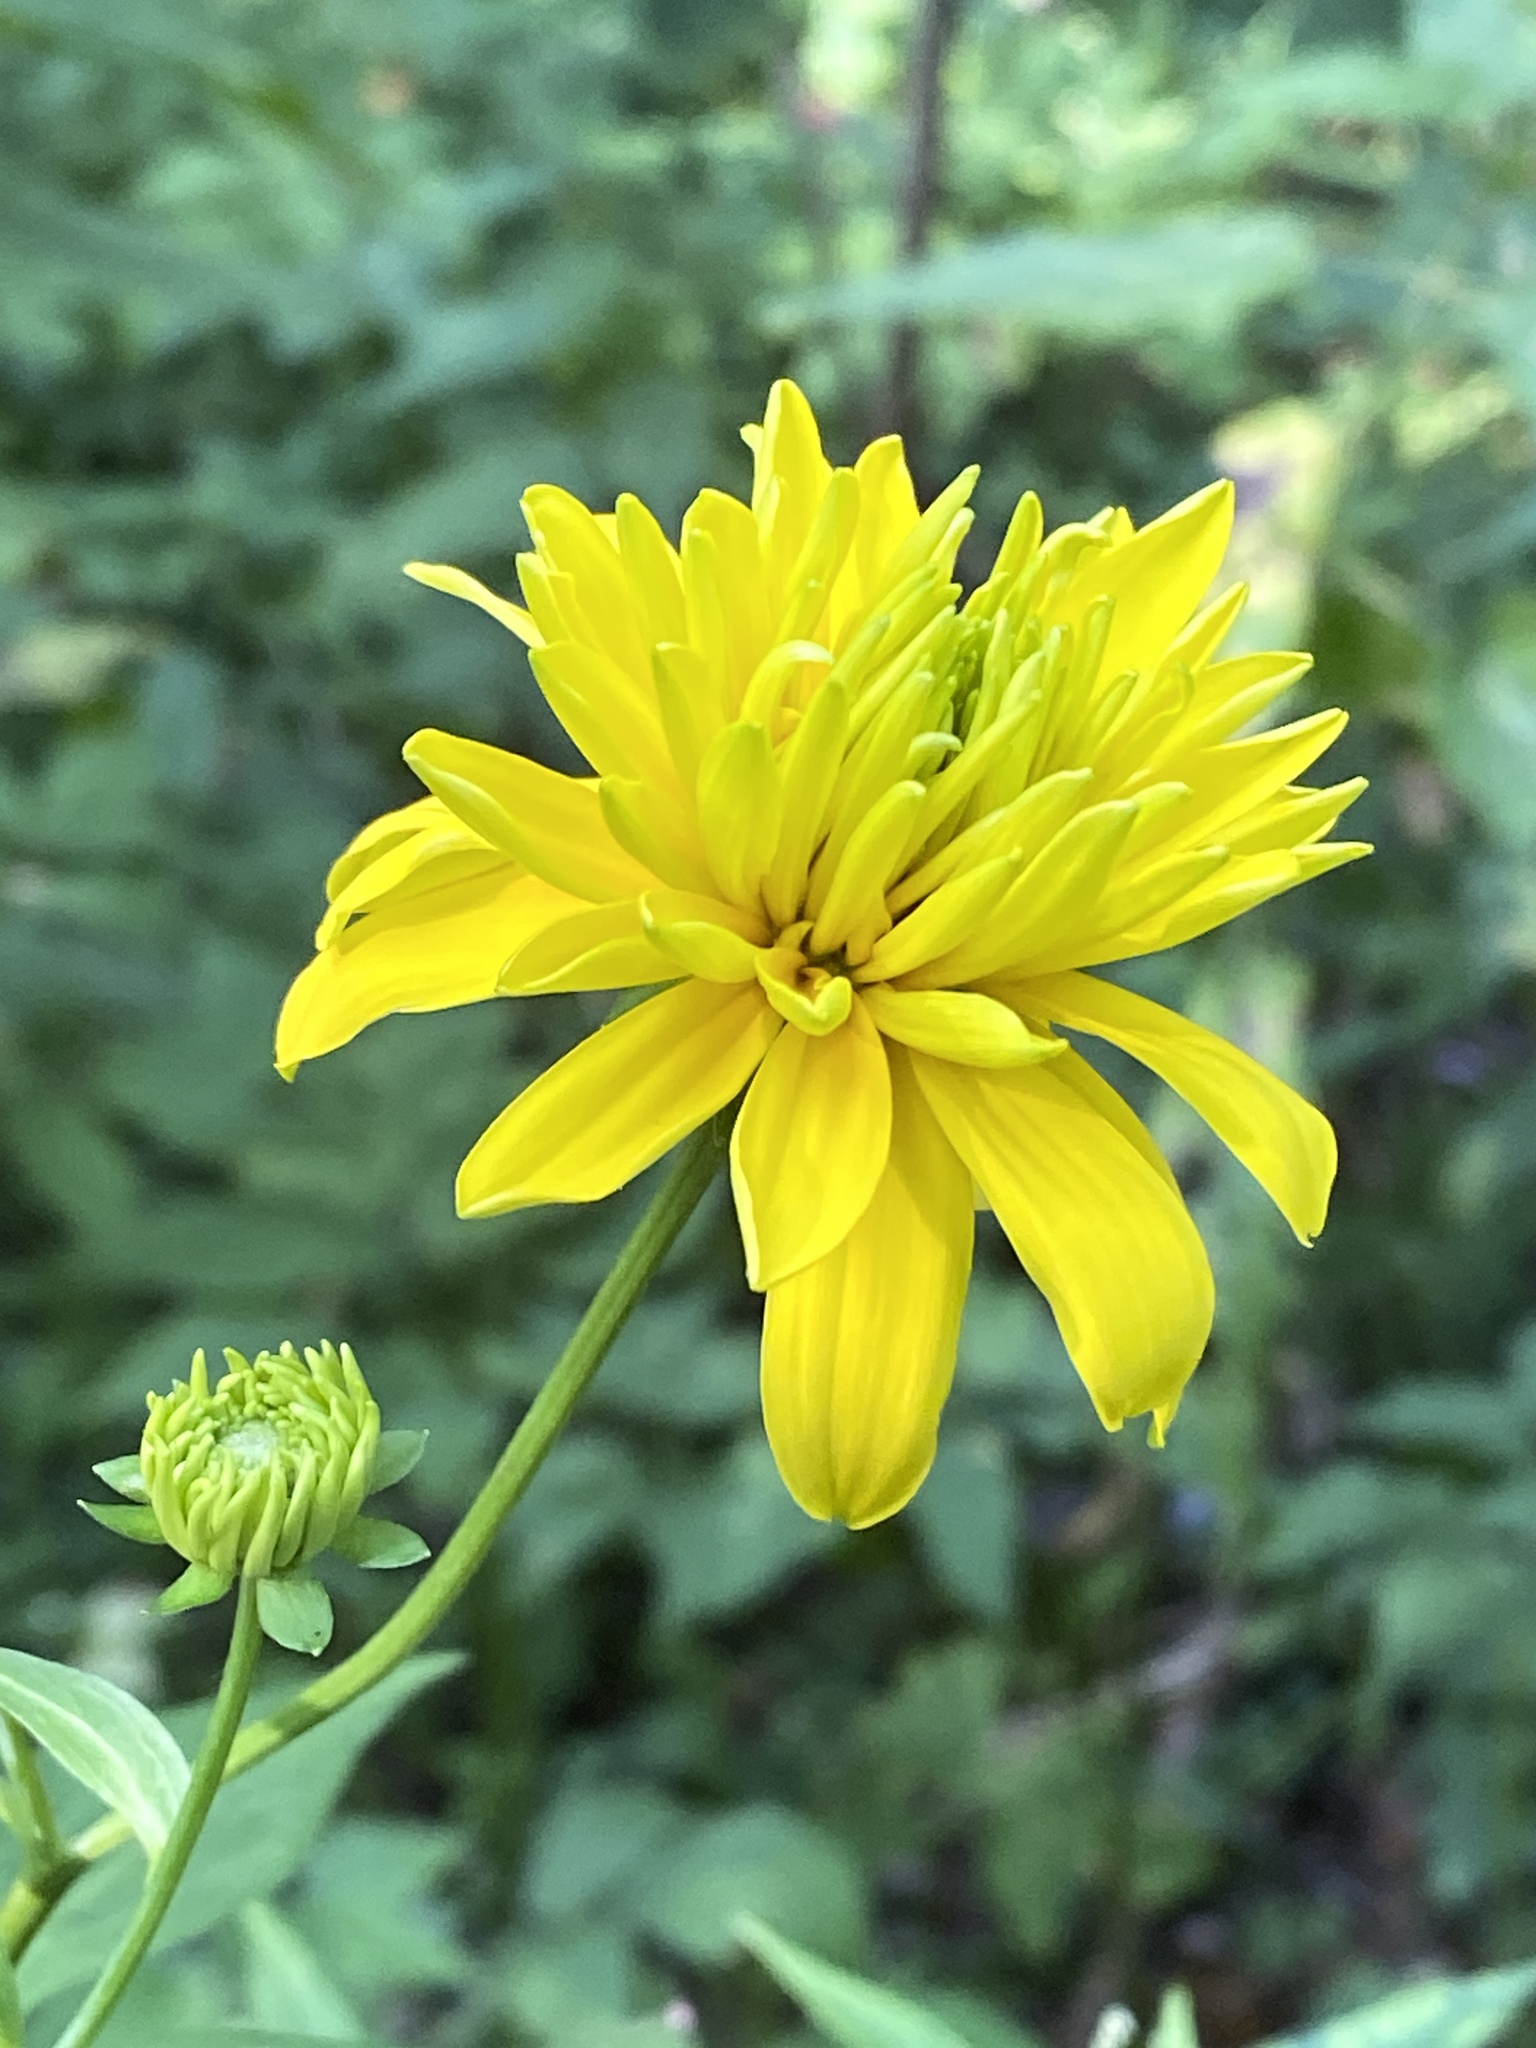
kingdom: Plantae
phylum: Tracheophyta
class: Magnoliopsida
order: Asterales
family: Asteraceae
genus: Rudbeckia
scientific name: Rudbeckia laciniata
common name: Coneflower
